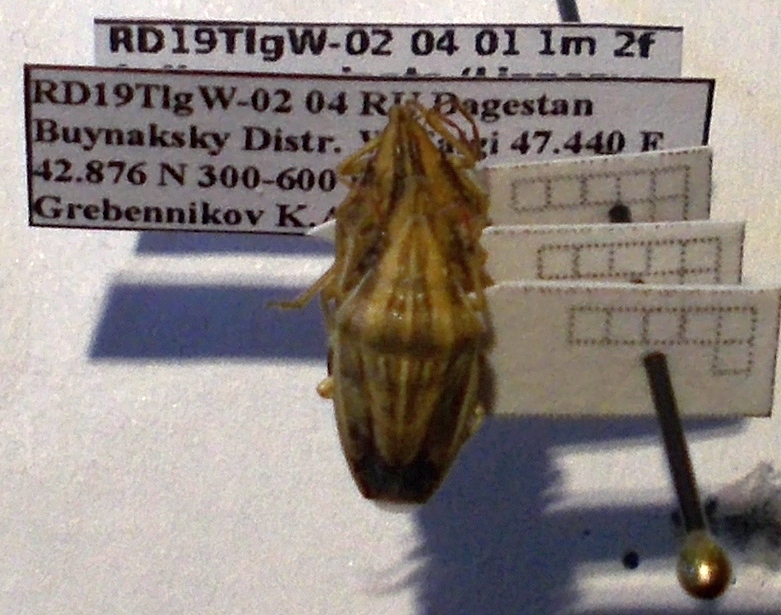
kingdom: Animalia
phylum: Arthropoda
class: Insecta
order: Hemiptera
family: Pentatomidae
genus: Aelia
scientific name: Aelia acuminata
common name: Bishop's mitre
